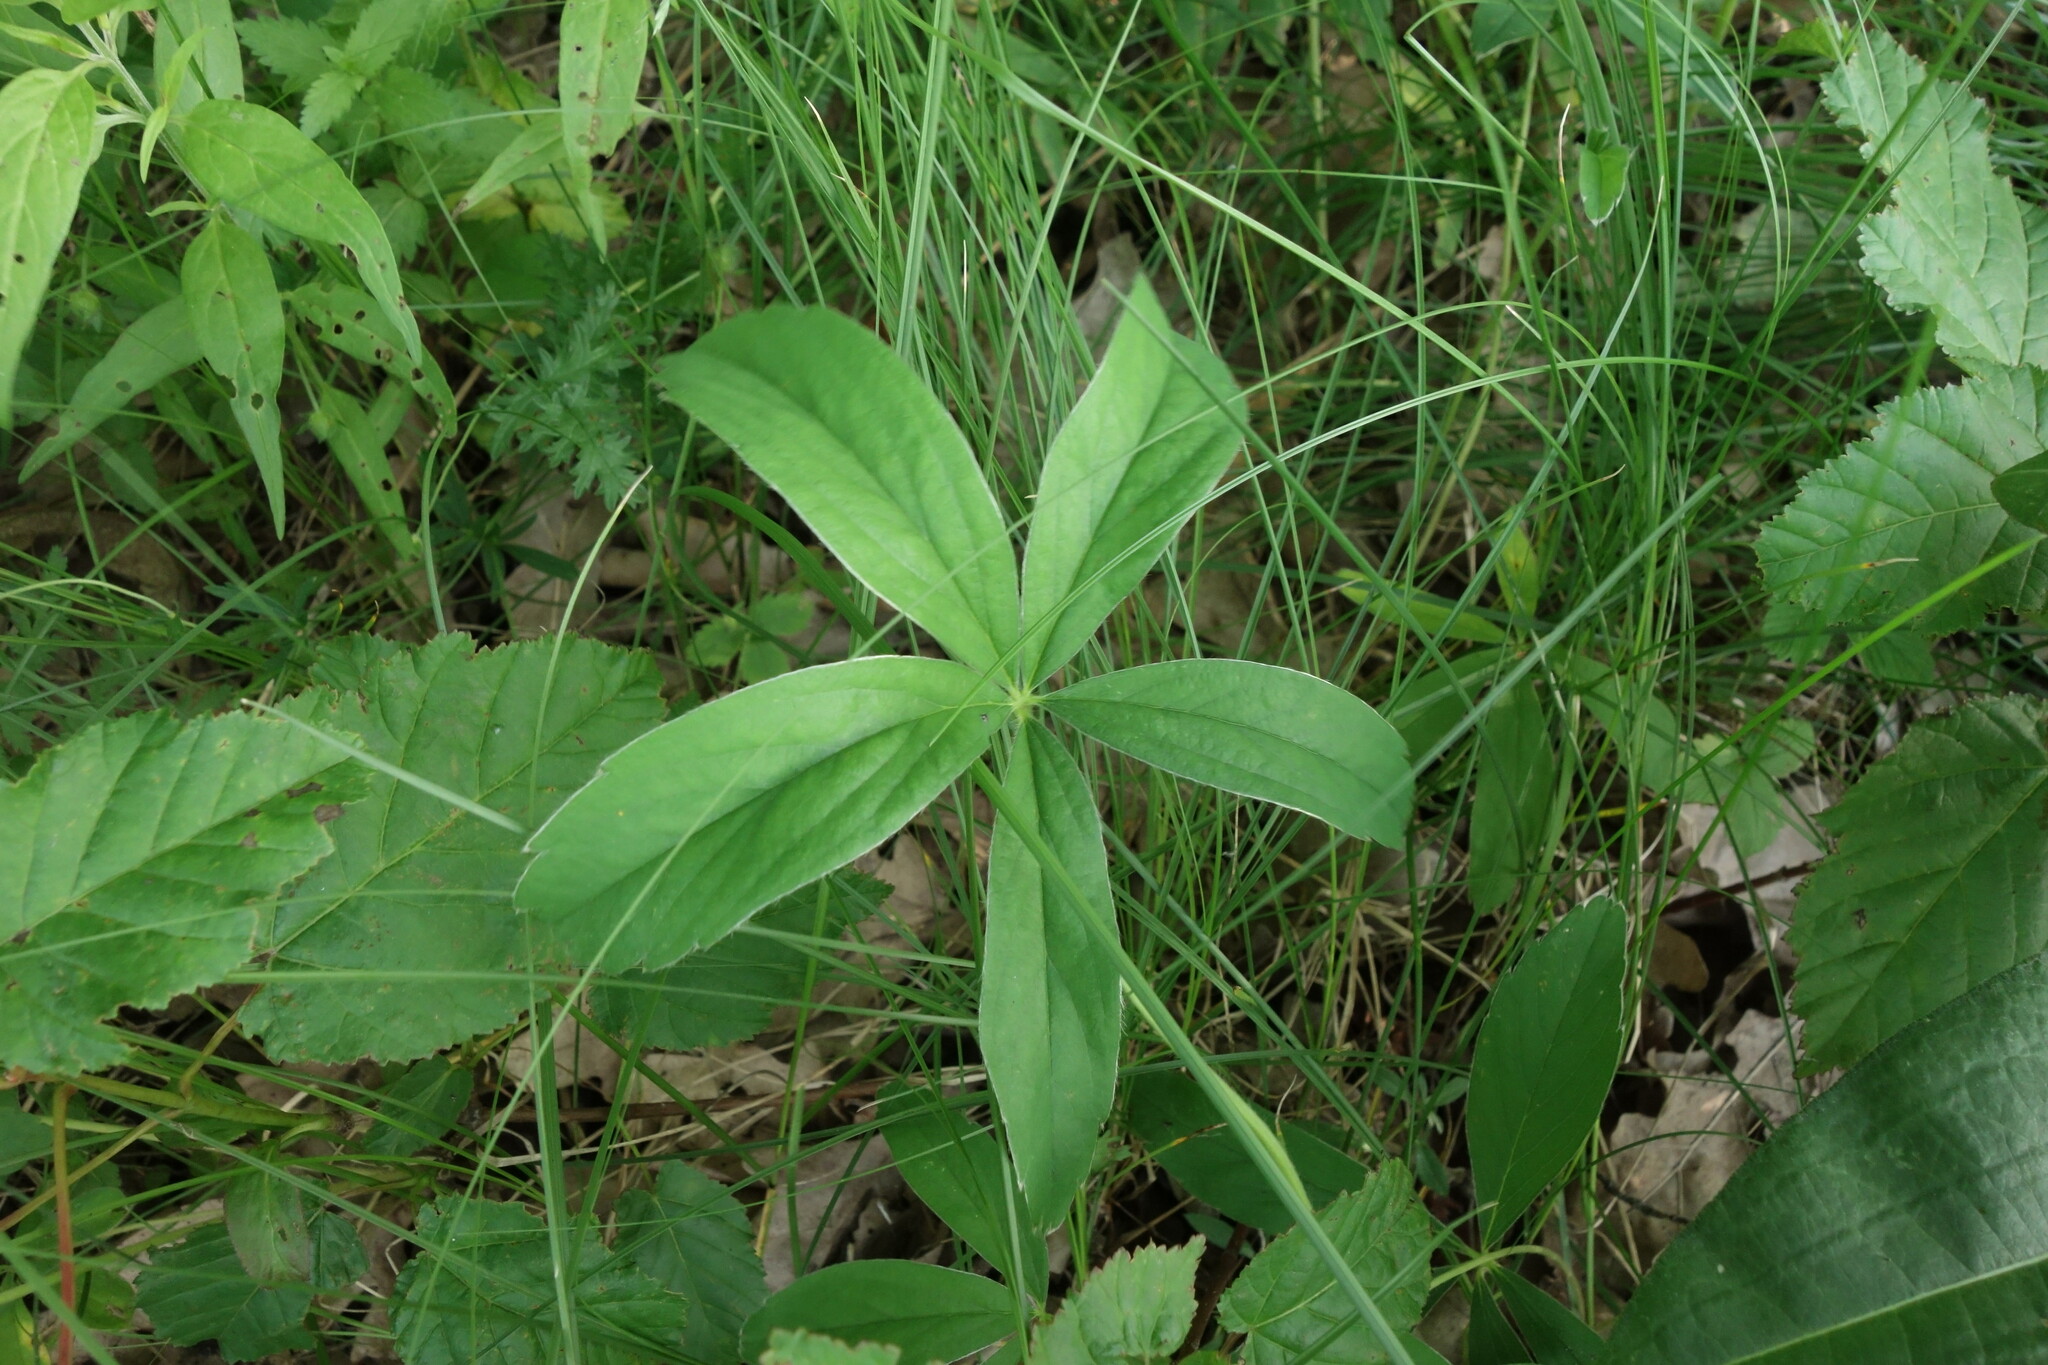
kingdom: Plantae
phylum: Tracheophyta
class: Magnoliopsida
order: Rosales
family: Rosaceae
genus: Potentilla
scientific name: Potentilla alba
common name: White cinquefoil
